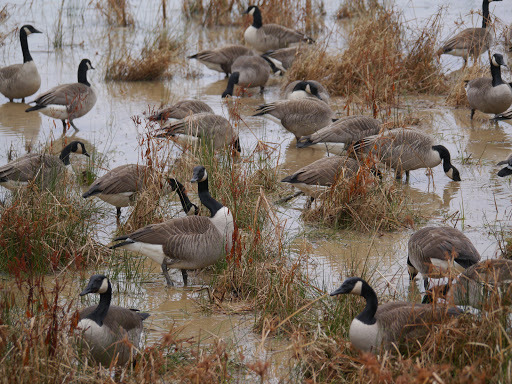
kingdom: Animalia
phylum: Chordata
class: Aves
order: Anseriformes
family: Anatidae
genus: Branta
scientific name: Branta canadensis
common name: Canada goose
